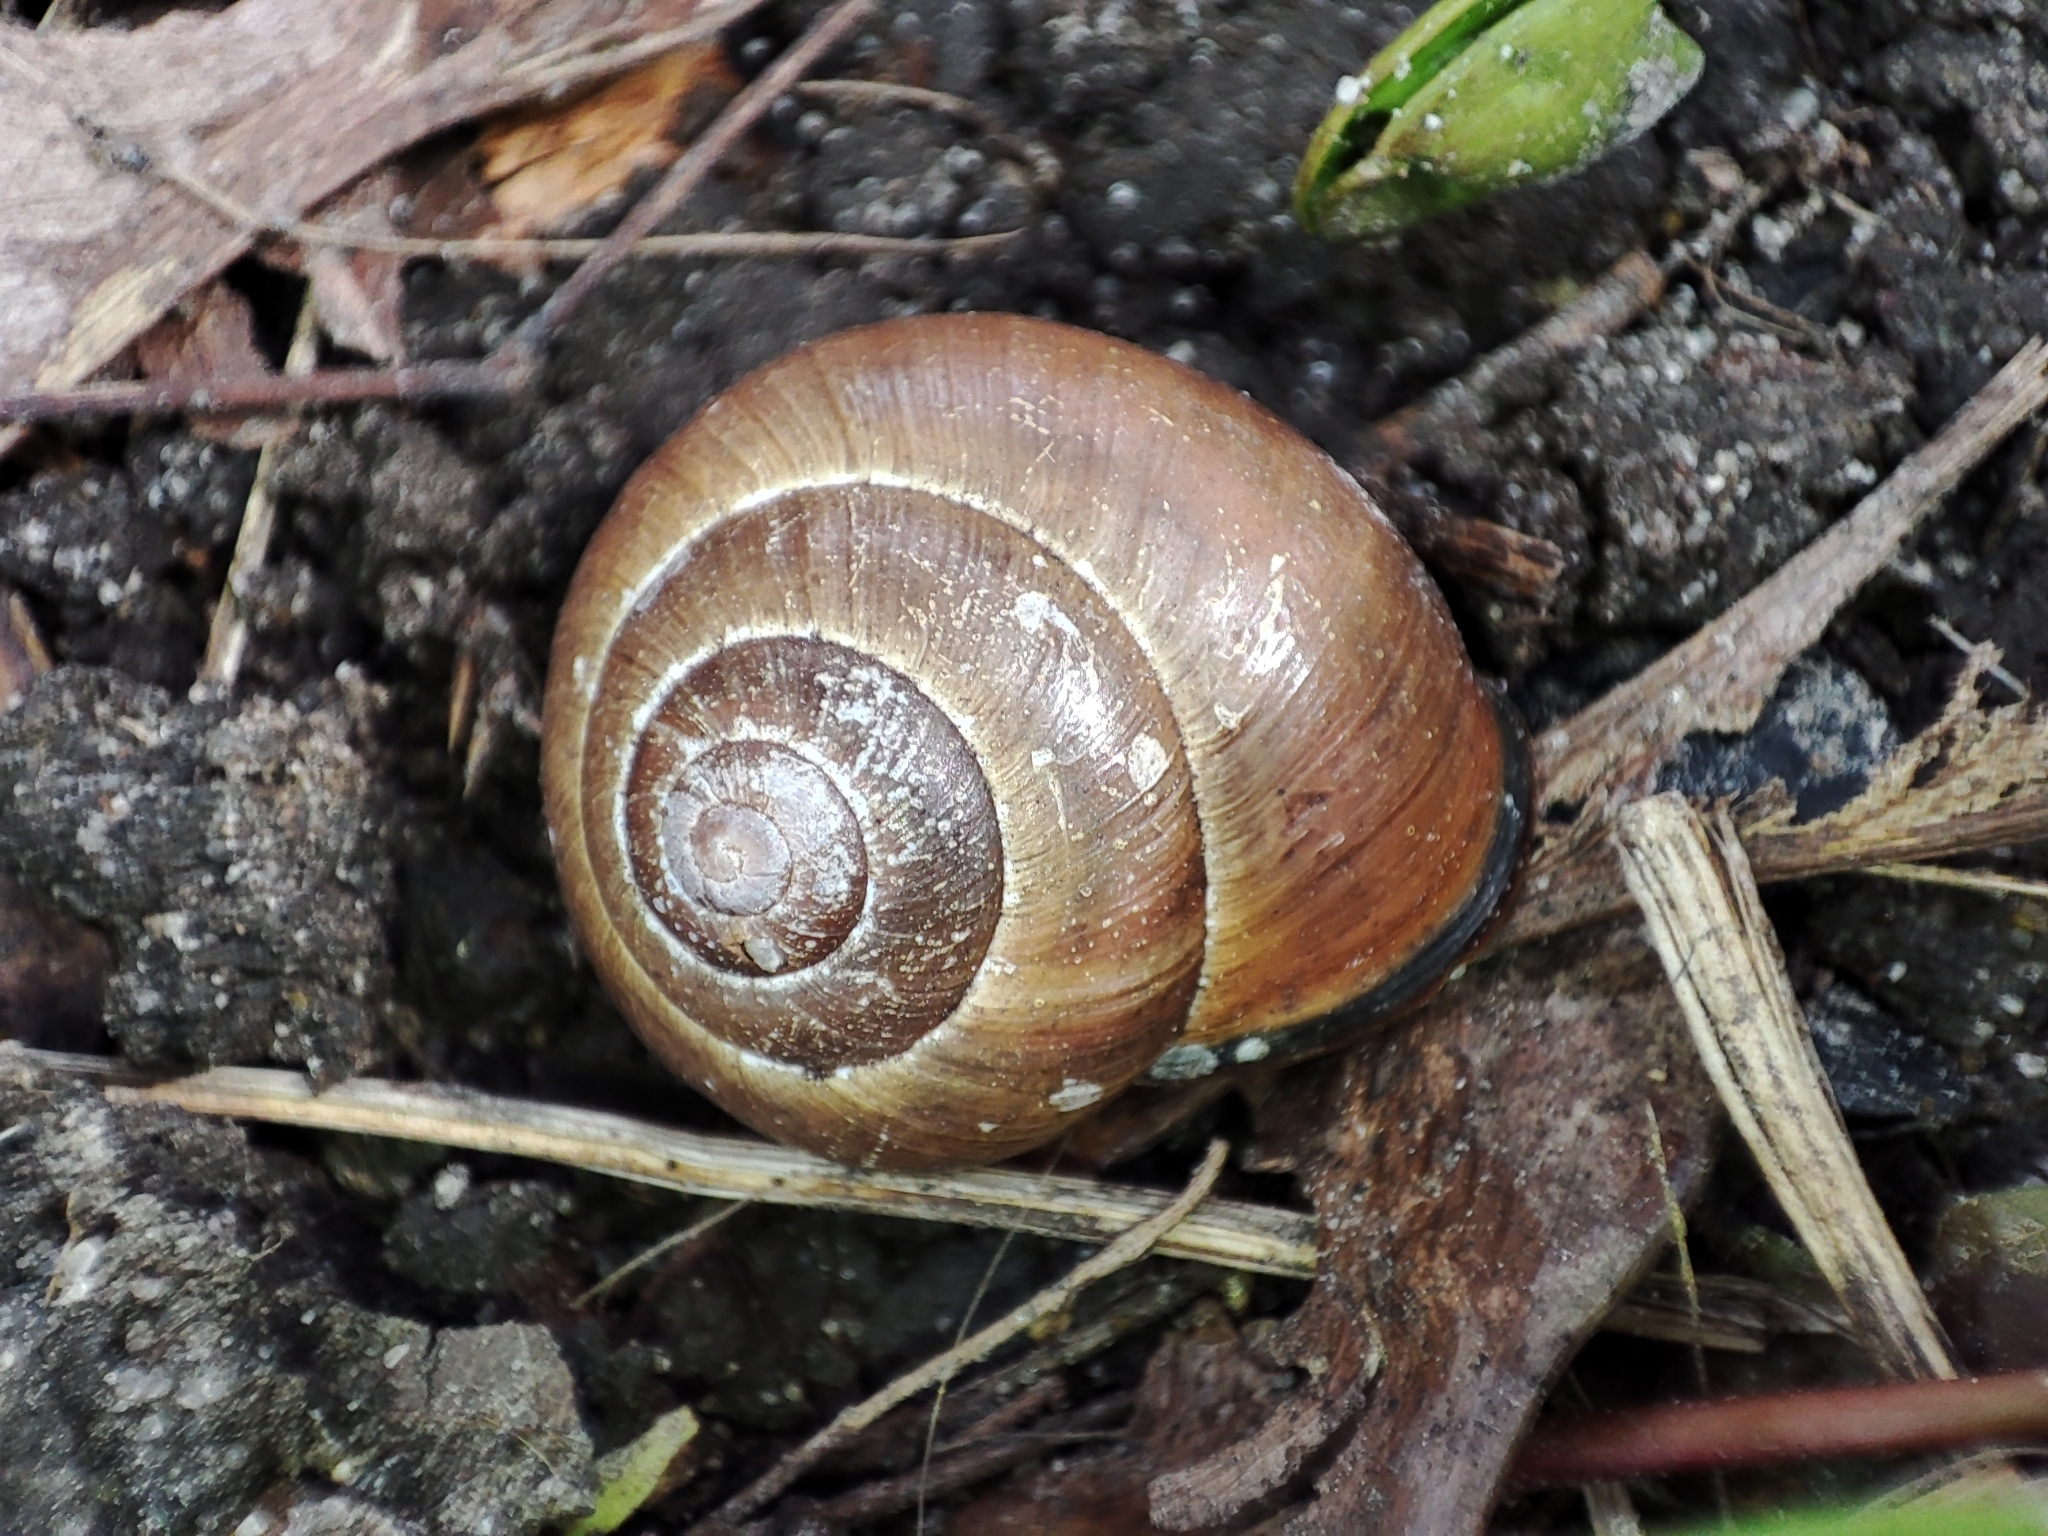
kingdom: Animalia
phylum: Mollusca
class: Gastropoda
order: Stylommatophora
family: Helicidae
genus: Cepaea
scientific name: Cepaea nemoralis
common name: Grovesnail
